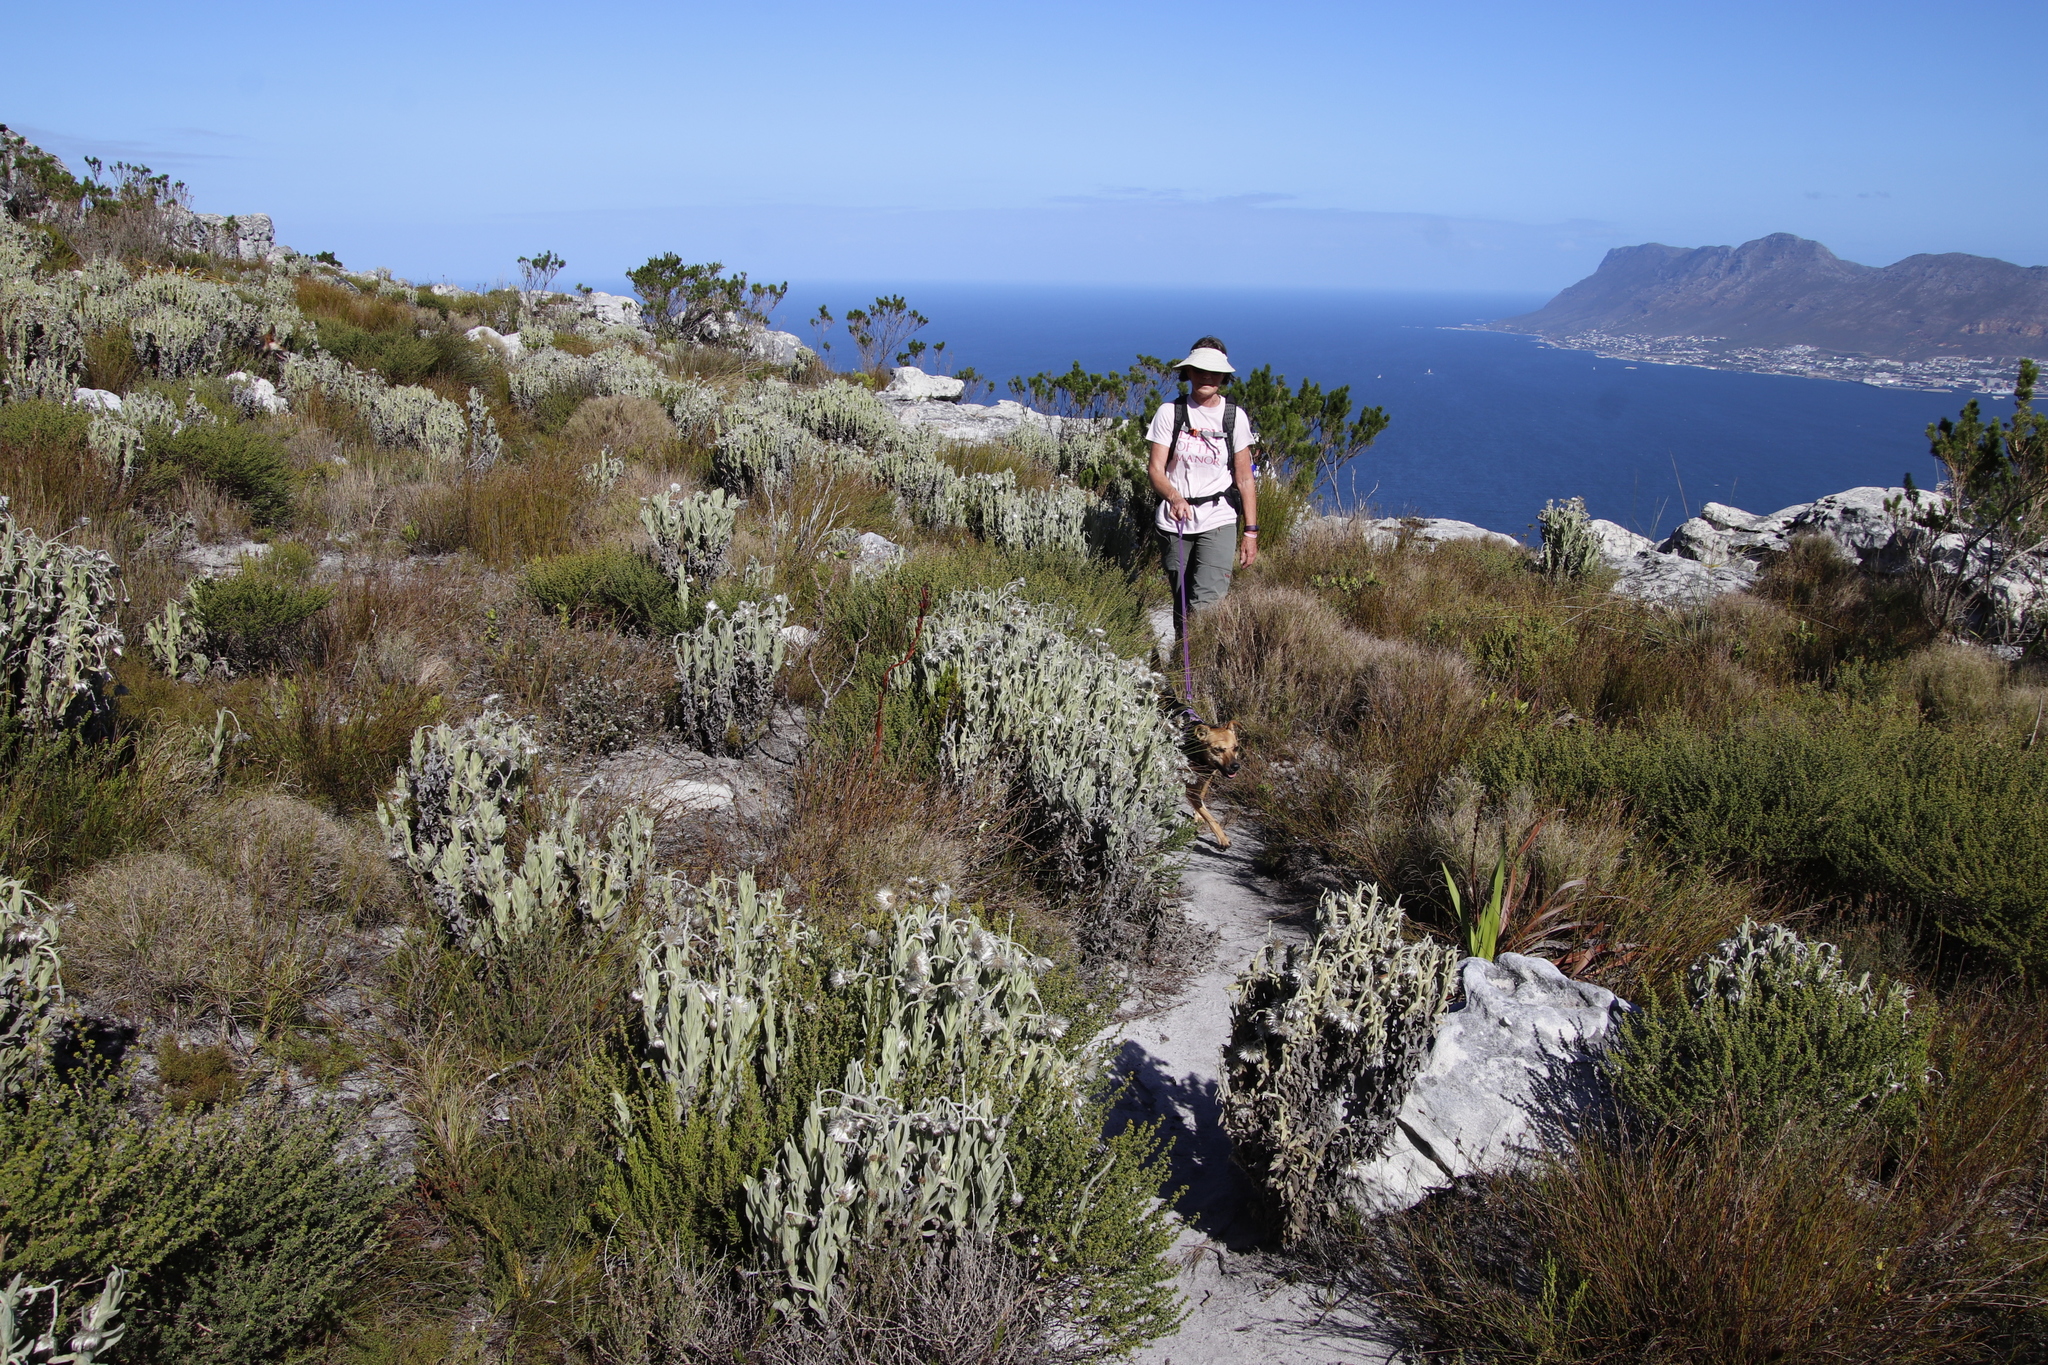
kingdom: Plantae
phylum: Tracheophyta
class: Magnoliopsida
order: Asterales
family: Asteraceae
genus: Syncarpha
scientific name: Syncarpha vestita
